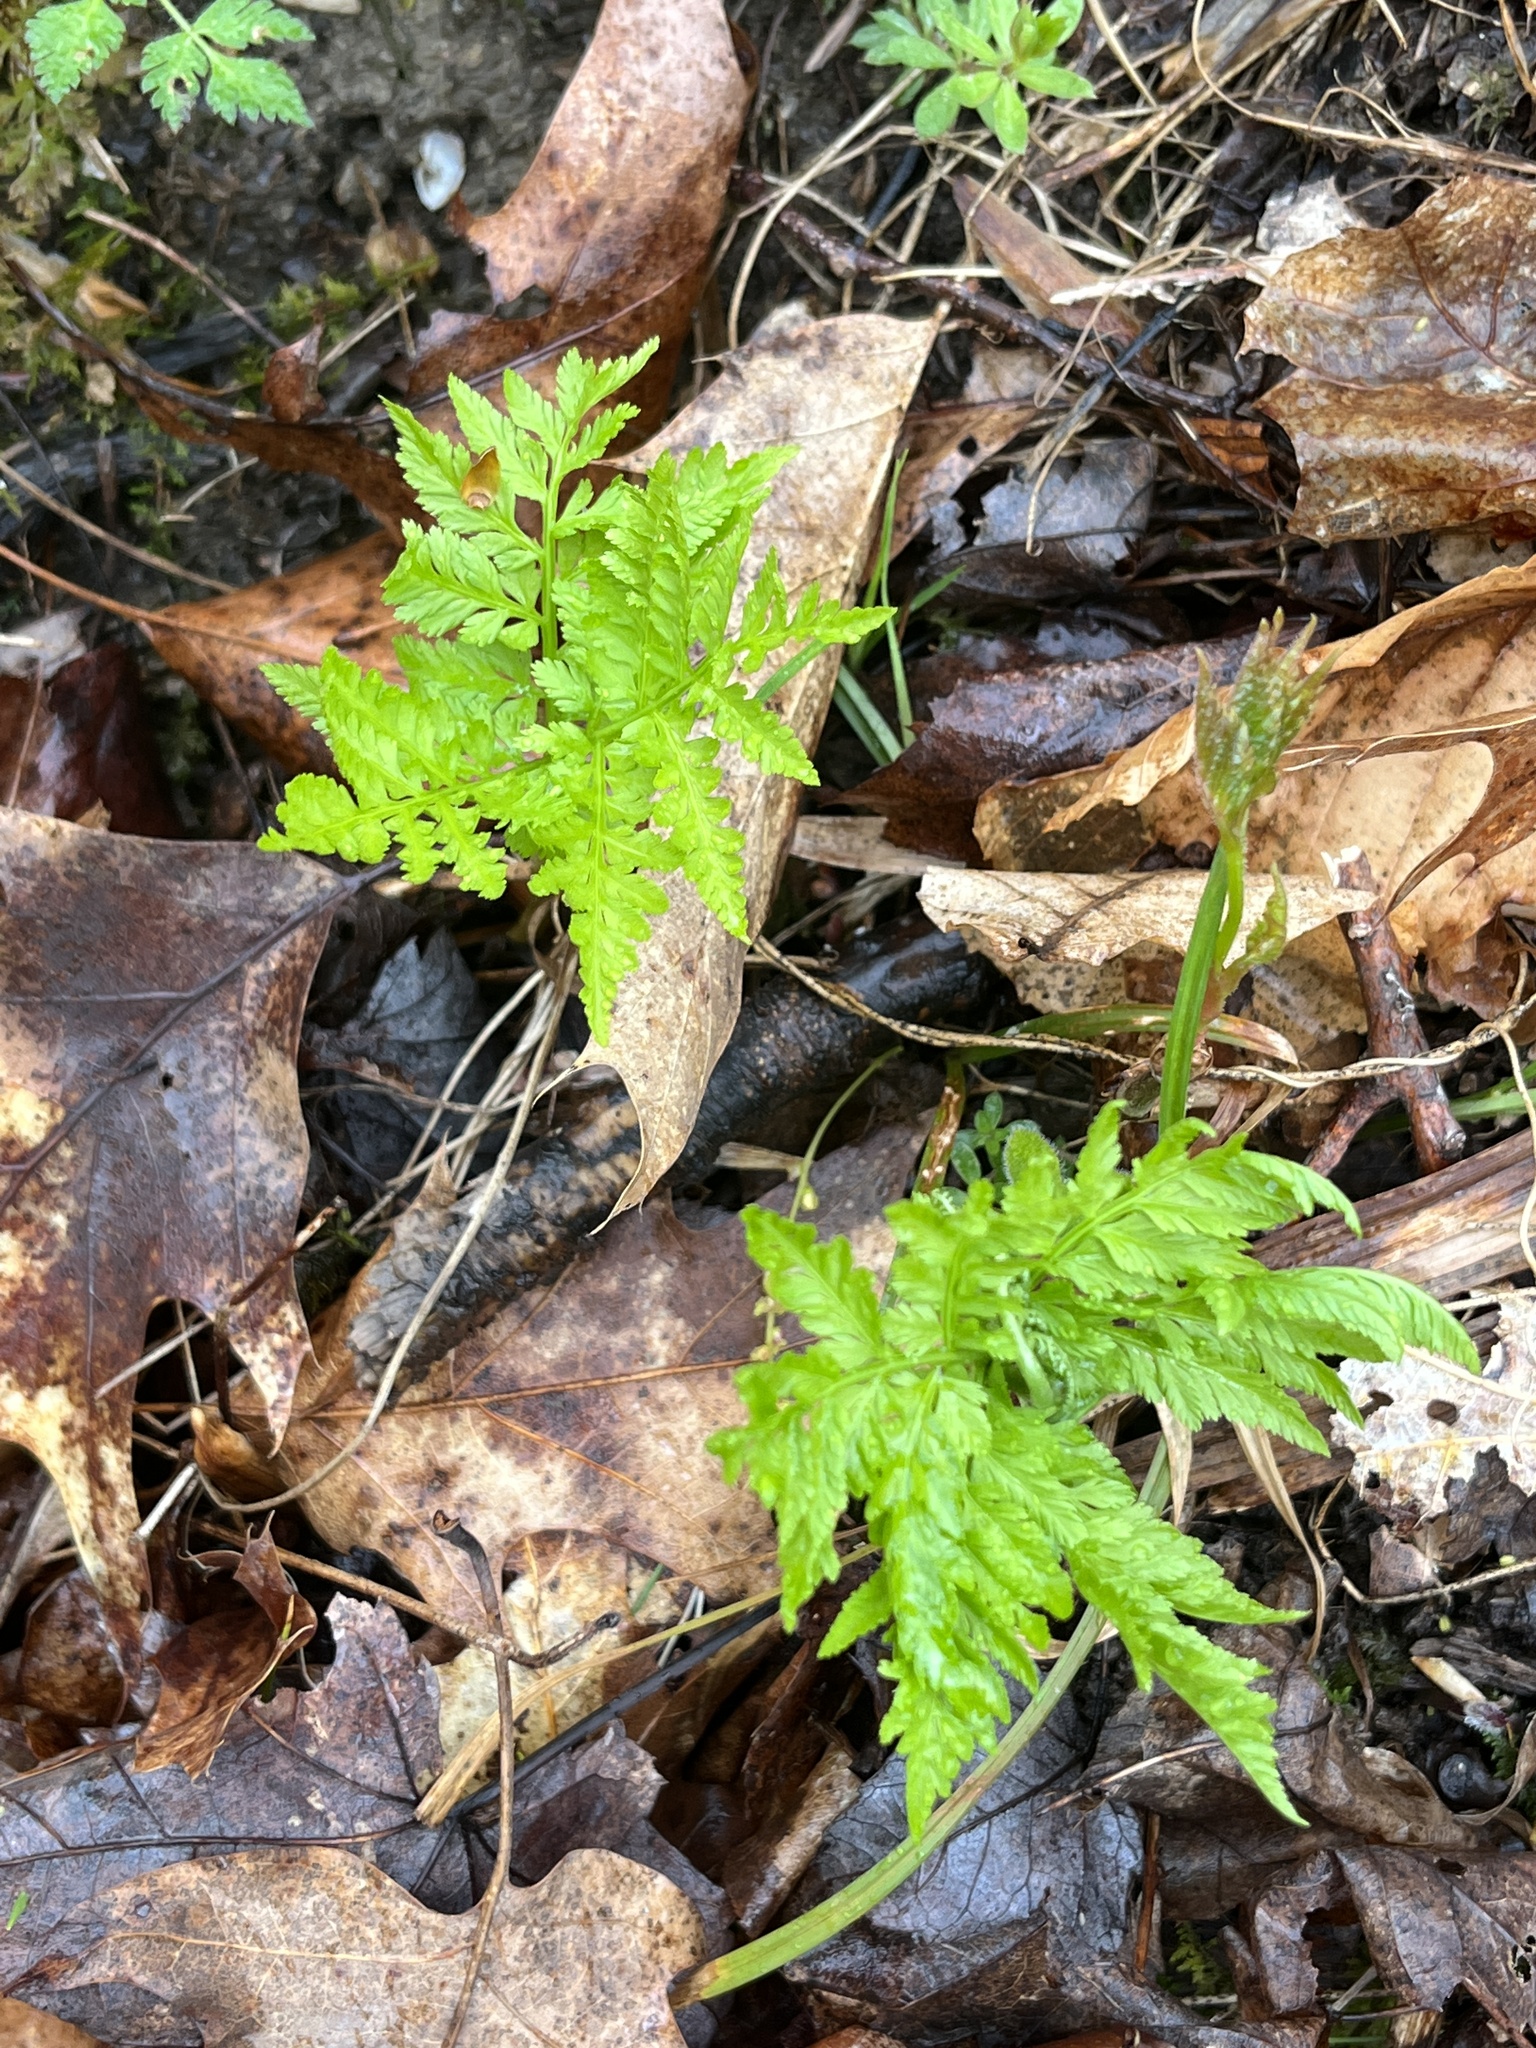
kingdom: Plantae
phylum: Tracheophyta
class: Polypodiopsida
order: Ophioglossales
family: Ophioglossaceae
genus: Botrypus
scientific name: Botrypus virginianus
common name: Common grapefern
